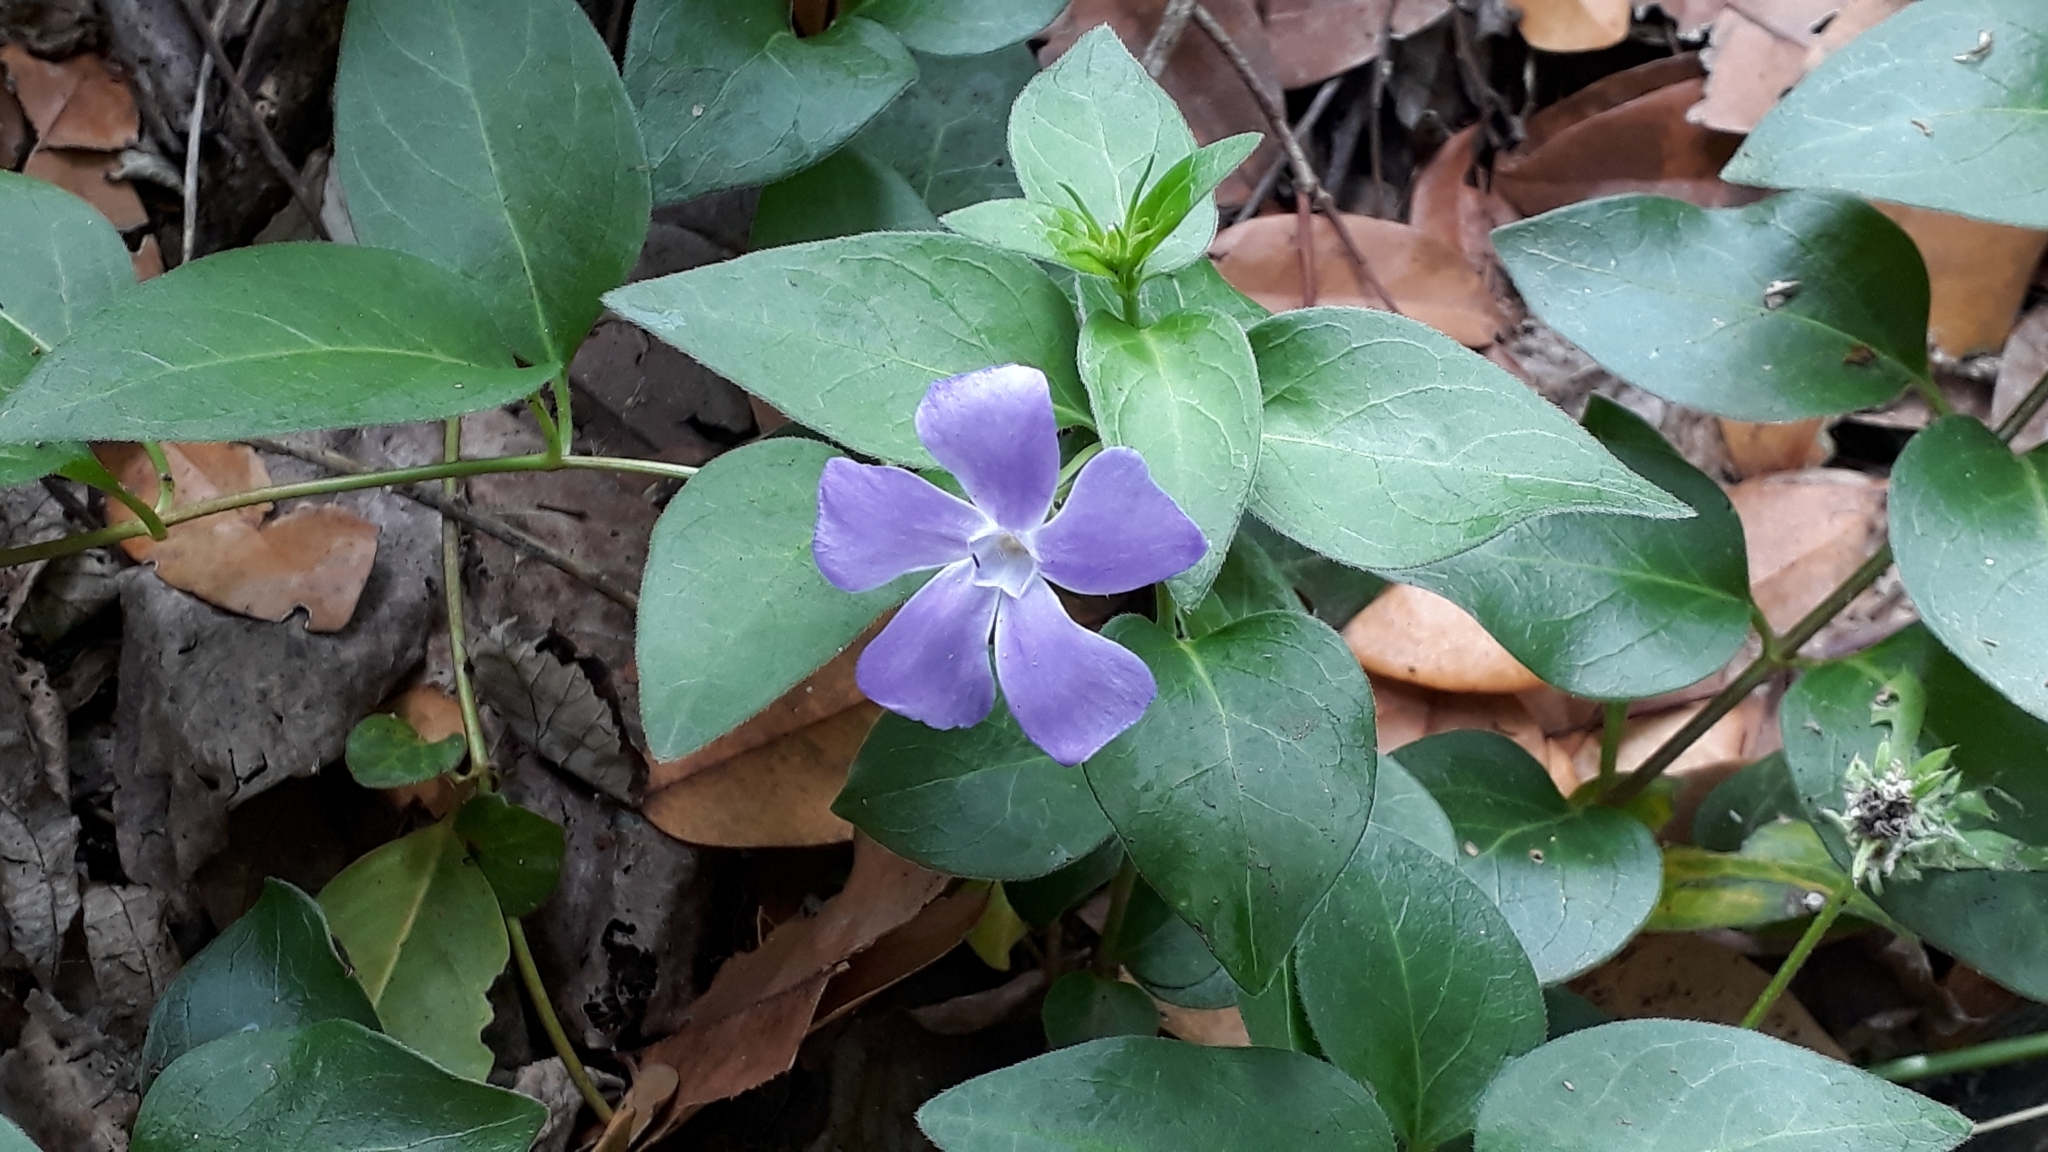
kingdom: Plantae
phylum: Tracheophyta
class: Magnoliopsida
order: Gentianales
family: Apocynaceae
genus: Vinca
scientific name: Vinca major
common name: Greater periwinkle
